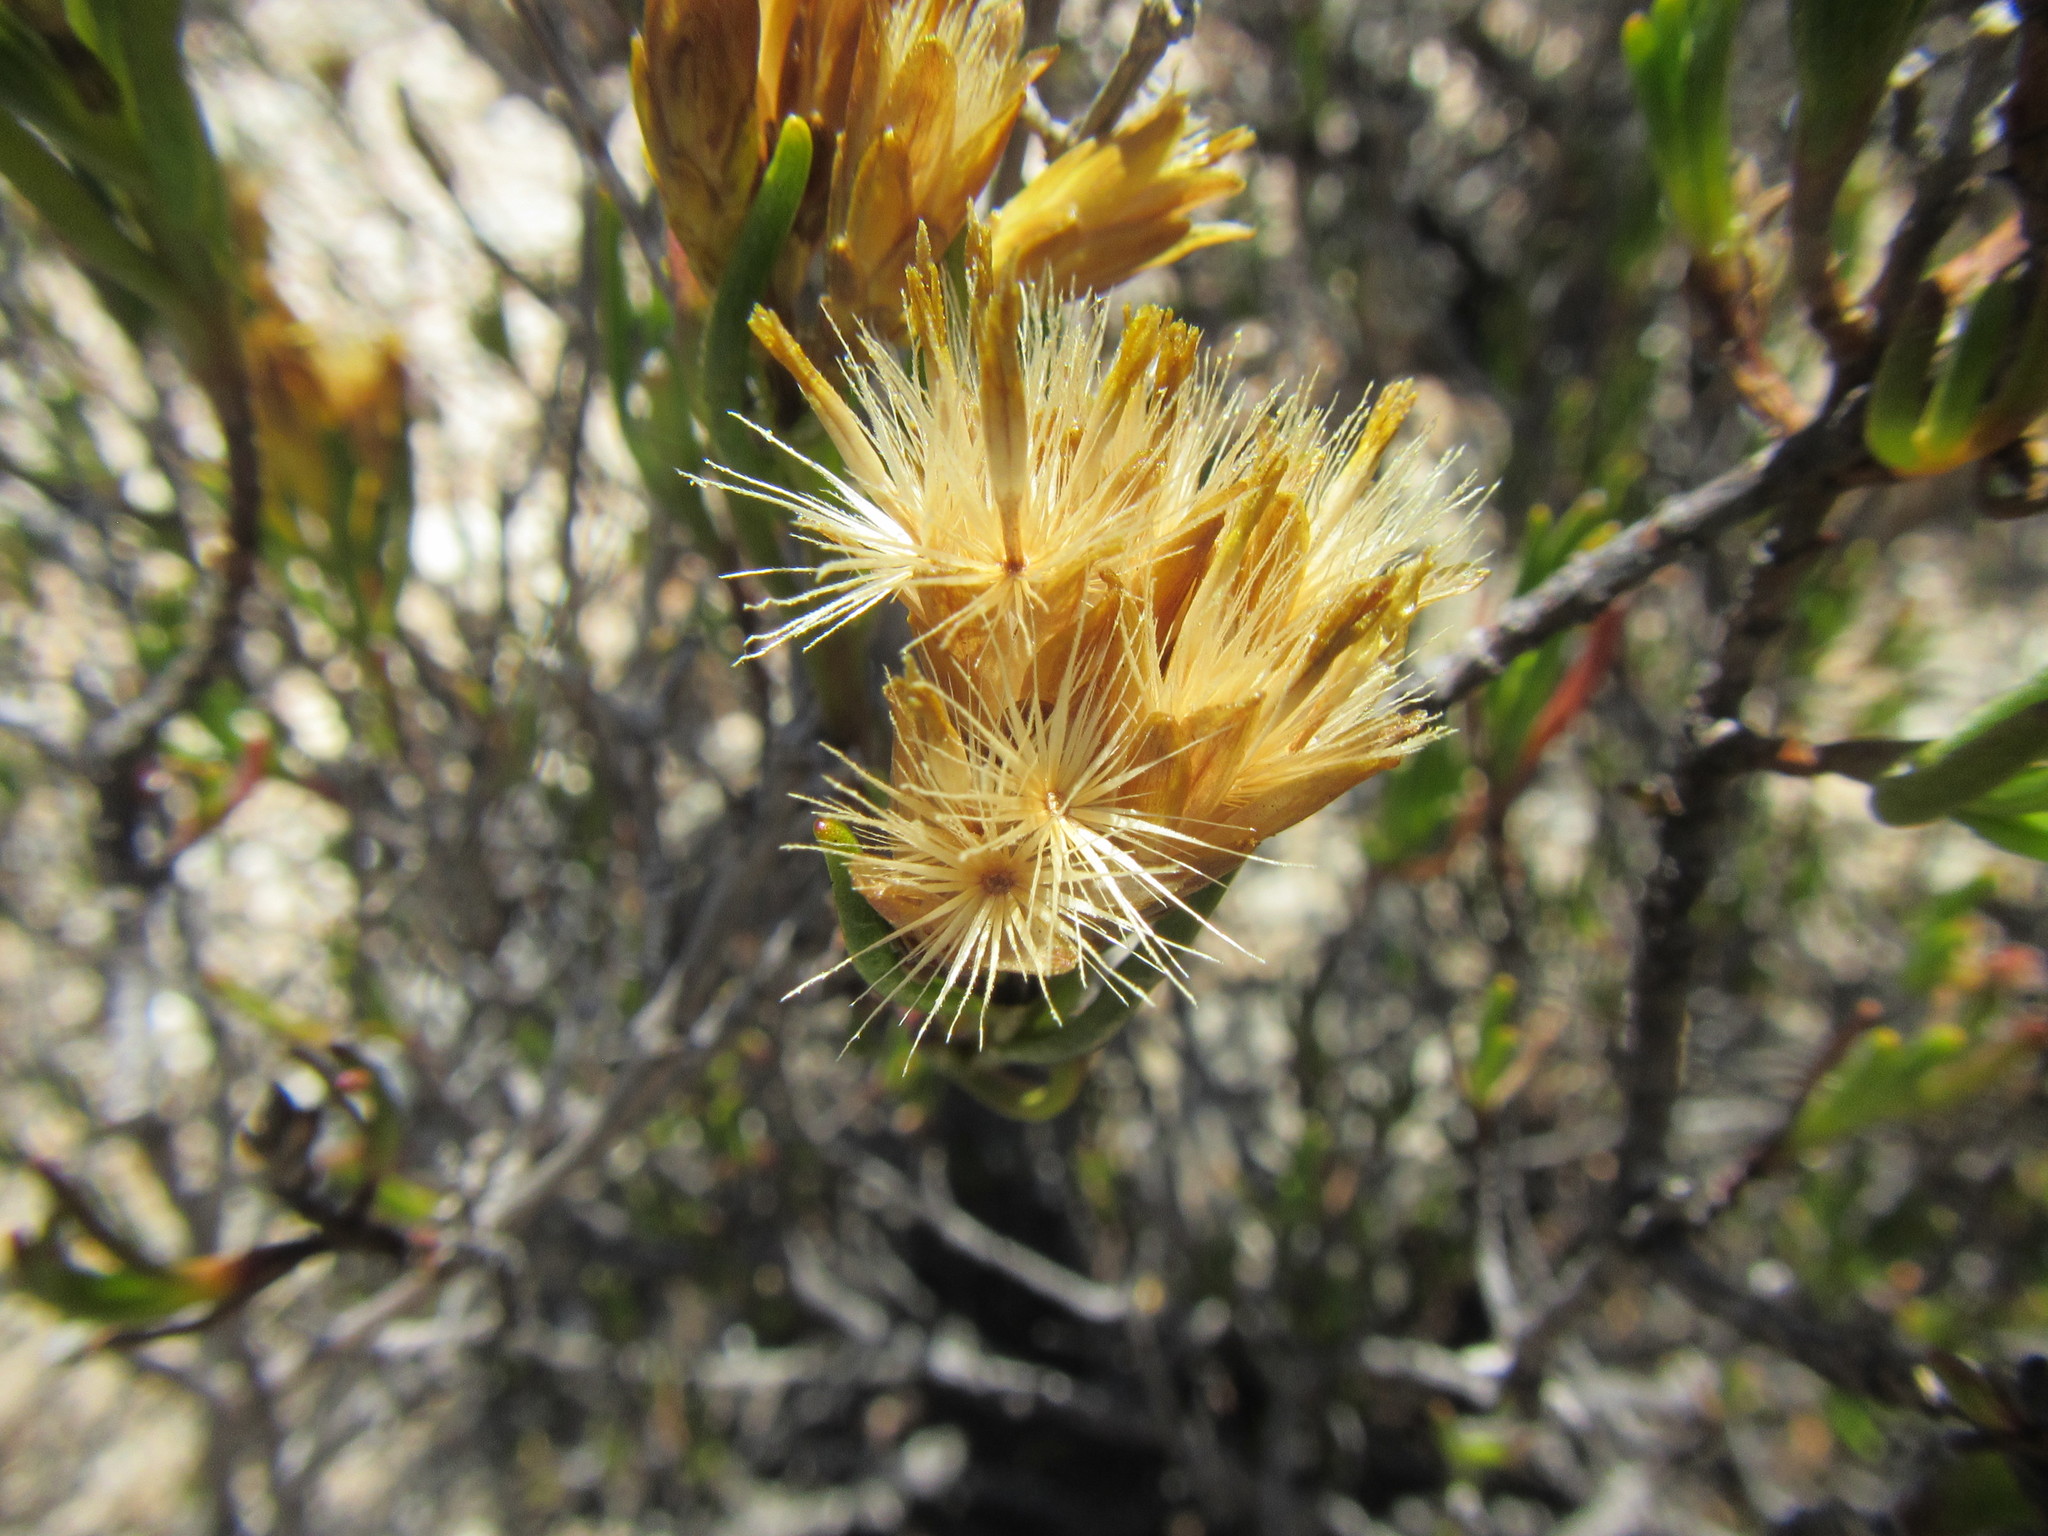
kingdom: Plantae
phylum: Tracheophyta
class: Magnoliopsida
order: Asterales
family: Asteraceae
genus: Pteronia
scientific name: Pteronia paniculata
